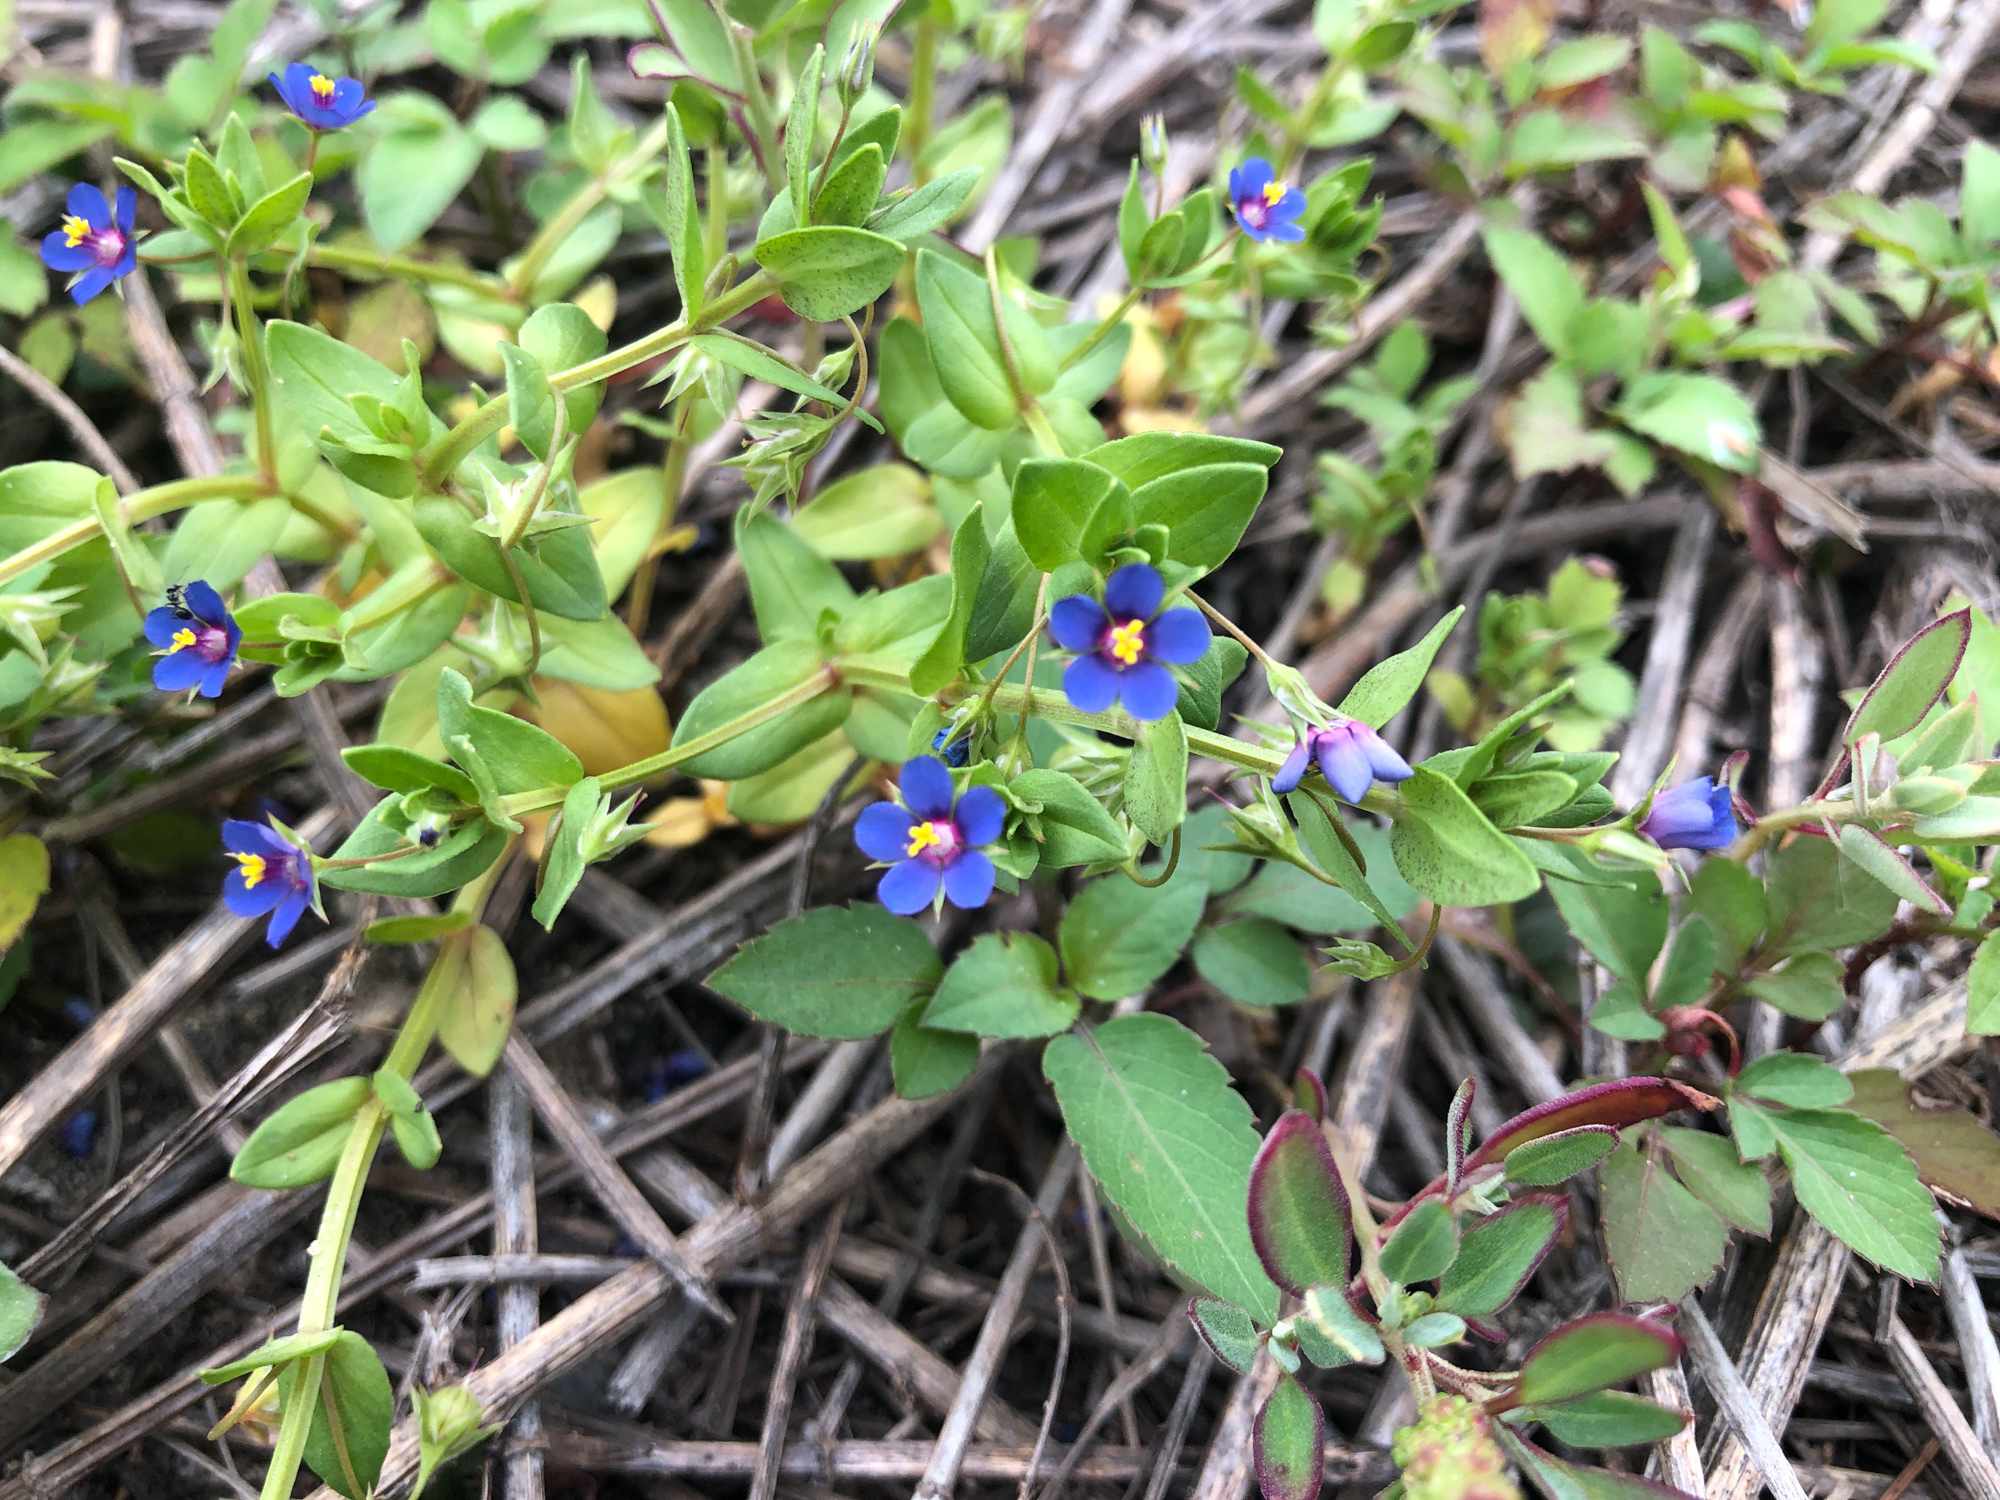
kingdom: Plantae
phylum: Tracheophyta
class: Magnoliopsida
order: Ericales
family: Primulaceae
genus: Lysimachia
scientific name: Lysimachia loeflingii
